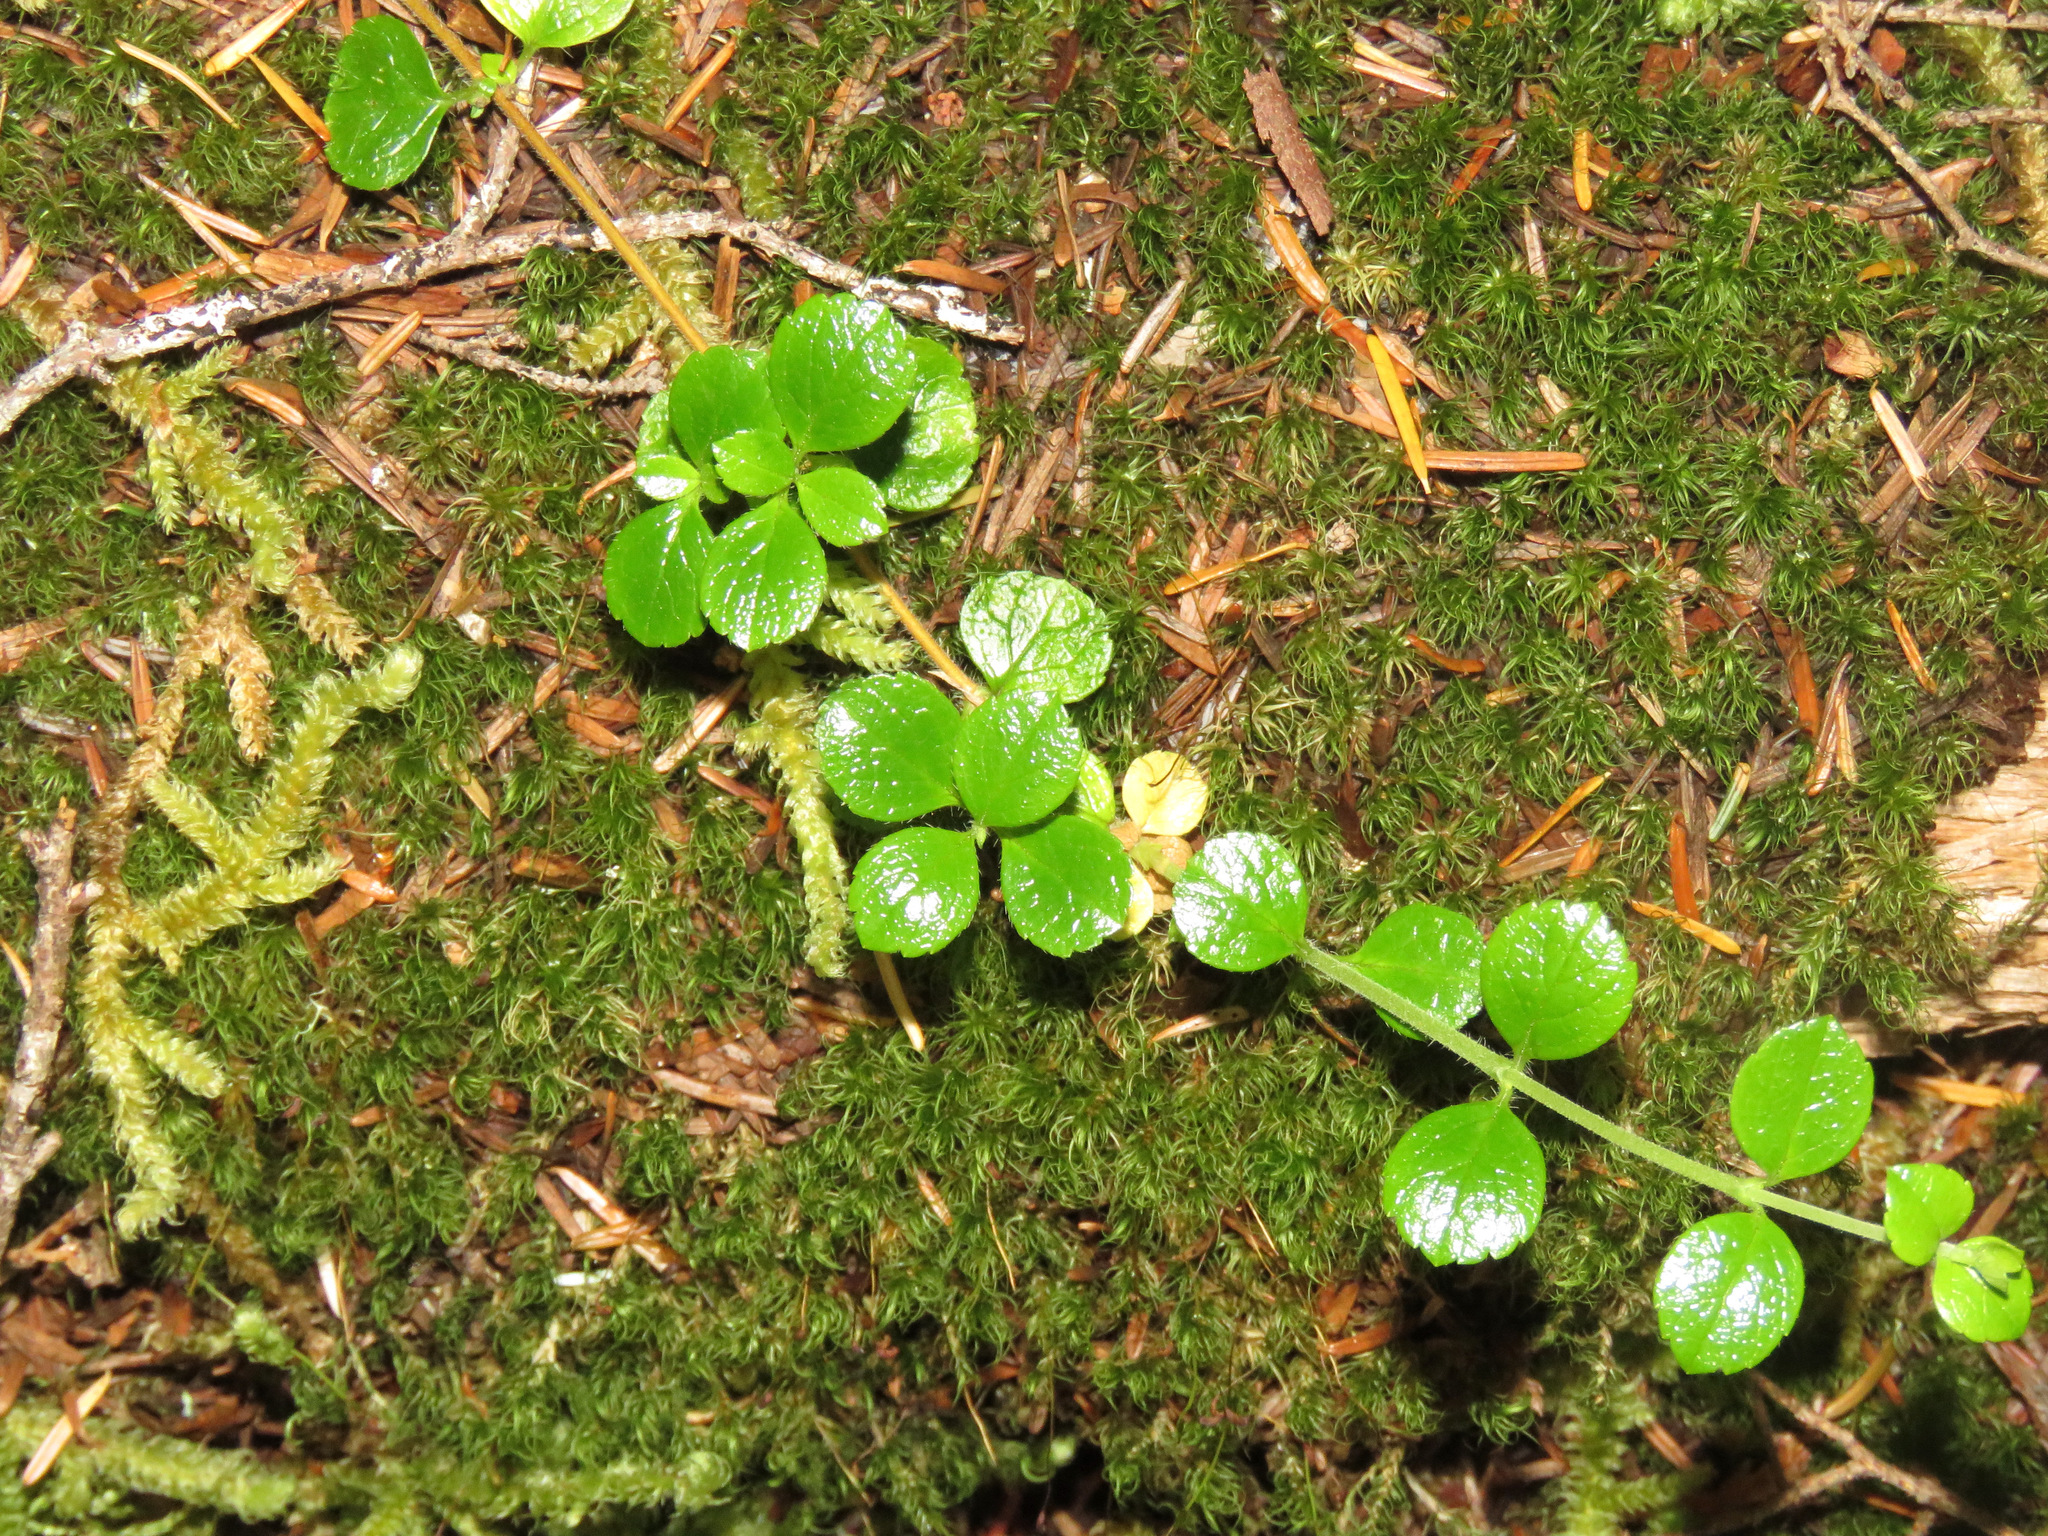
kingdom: Plantae
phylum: Tracheophyta
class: Magnoliopsida
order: Dipsacales
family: Caprifoliaceae
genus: Linnaea
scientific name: Linnaea borealis
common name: Twinflower
